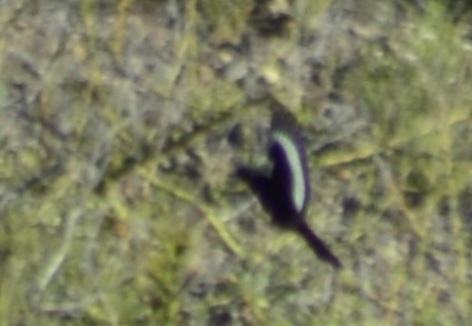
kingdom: Animalia
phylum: Chordata
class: Aves
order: Passeriformes
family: Tyrannidae
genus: Knipolegus
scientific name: Knipolegus aterrimus
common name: White-winged black tyrant
